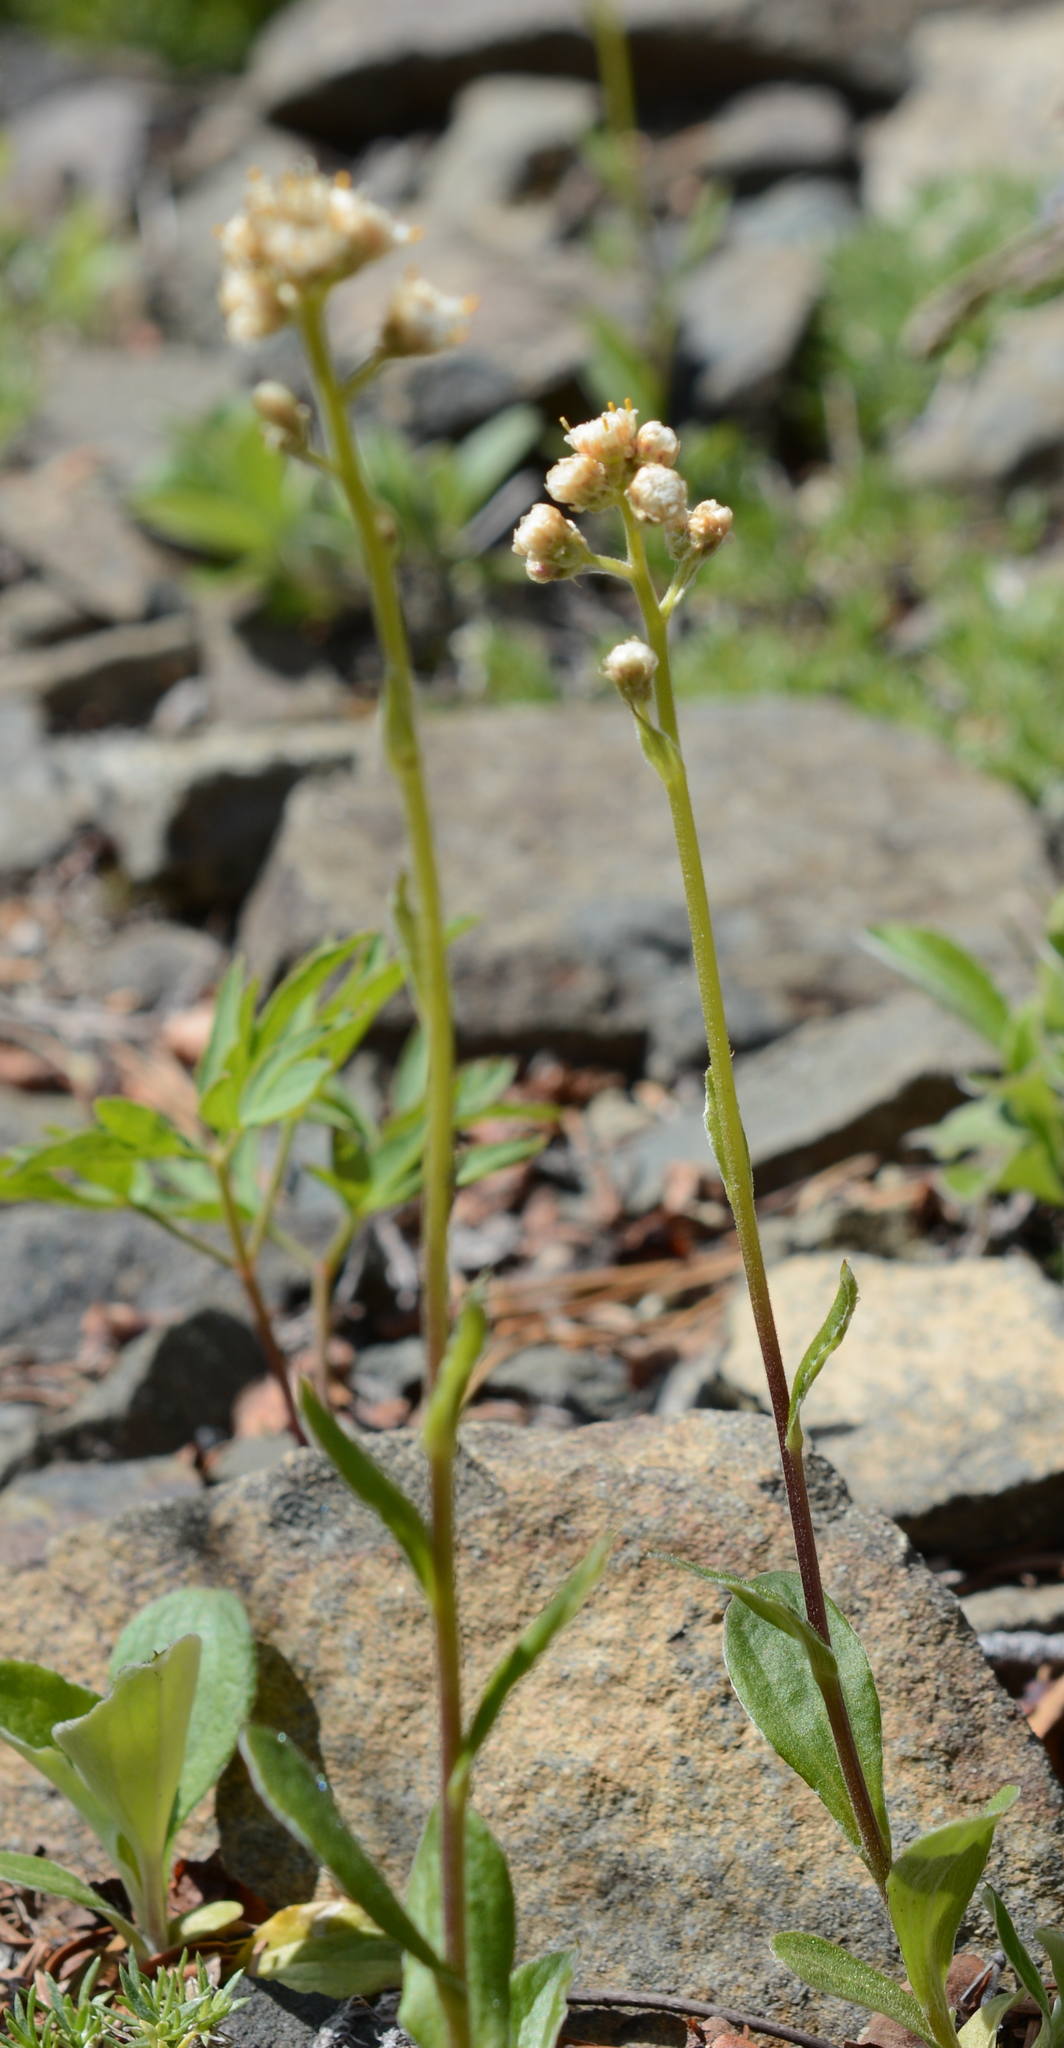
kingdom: Plantae
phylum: Tracheophyta
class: Magnoliopsida
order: Asterales
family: Asteraceae
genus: Antennaria
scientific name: Antennaria racemosa
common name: Racemose pussytoes
